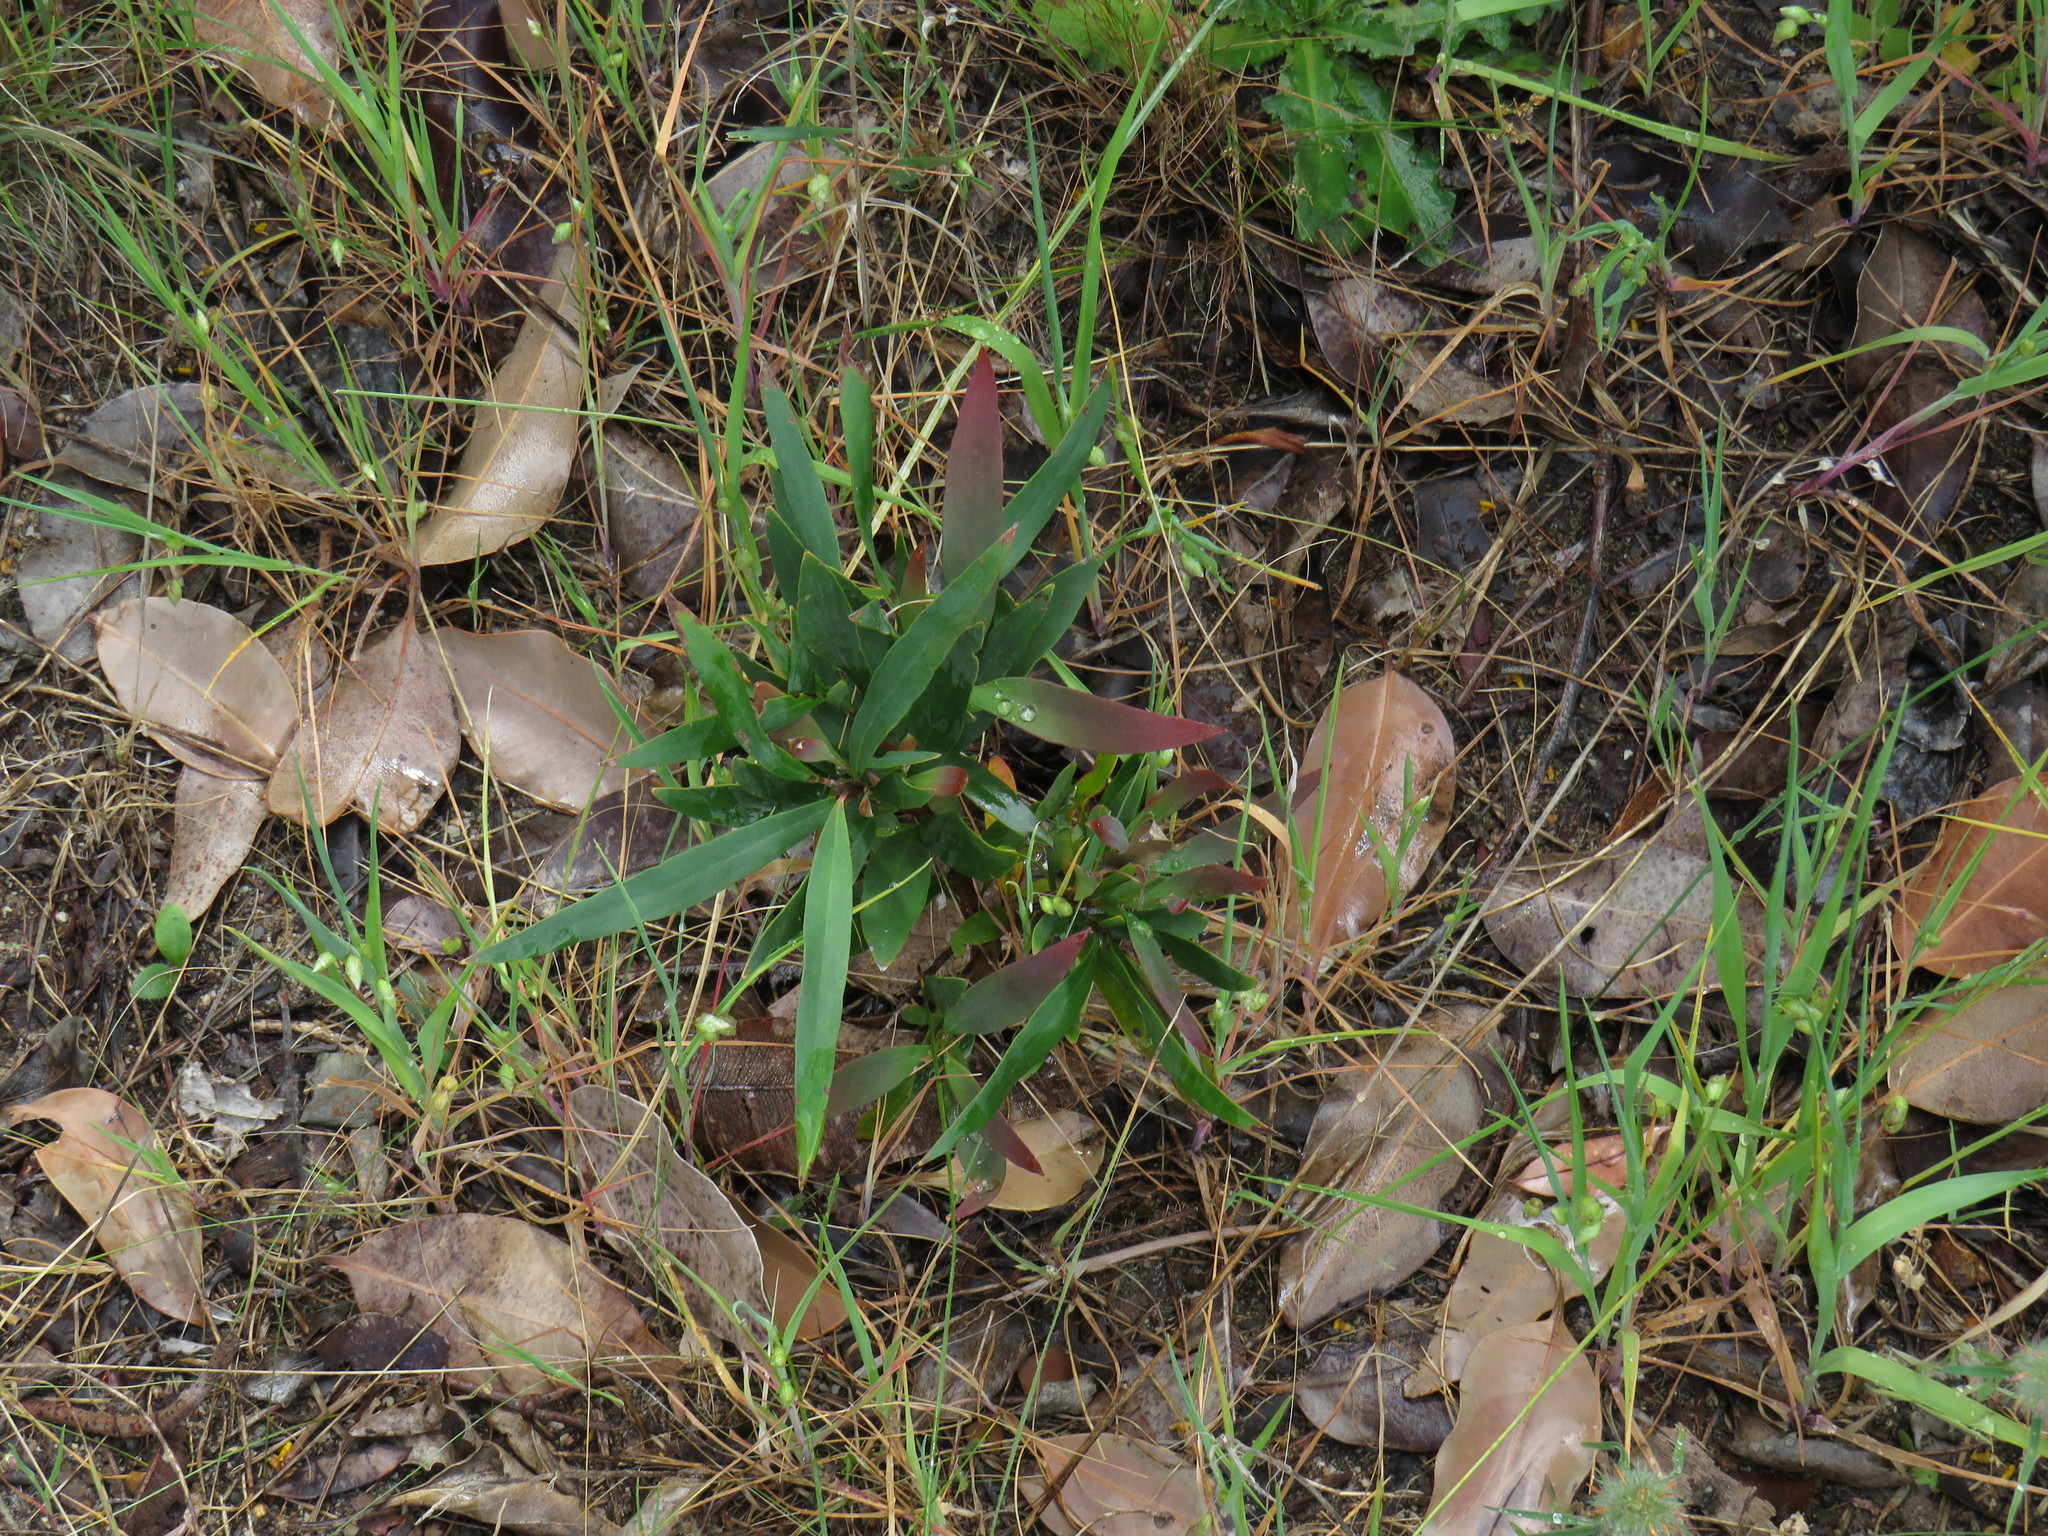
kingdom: Plantae
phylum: Tracheophyta
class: Magnoliopsida
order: Proteales
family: Proteaceae
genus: Hakea
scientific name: Hakea salicifolia
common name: Willow hakea
